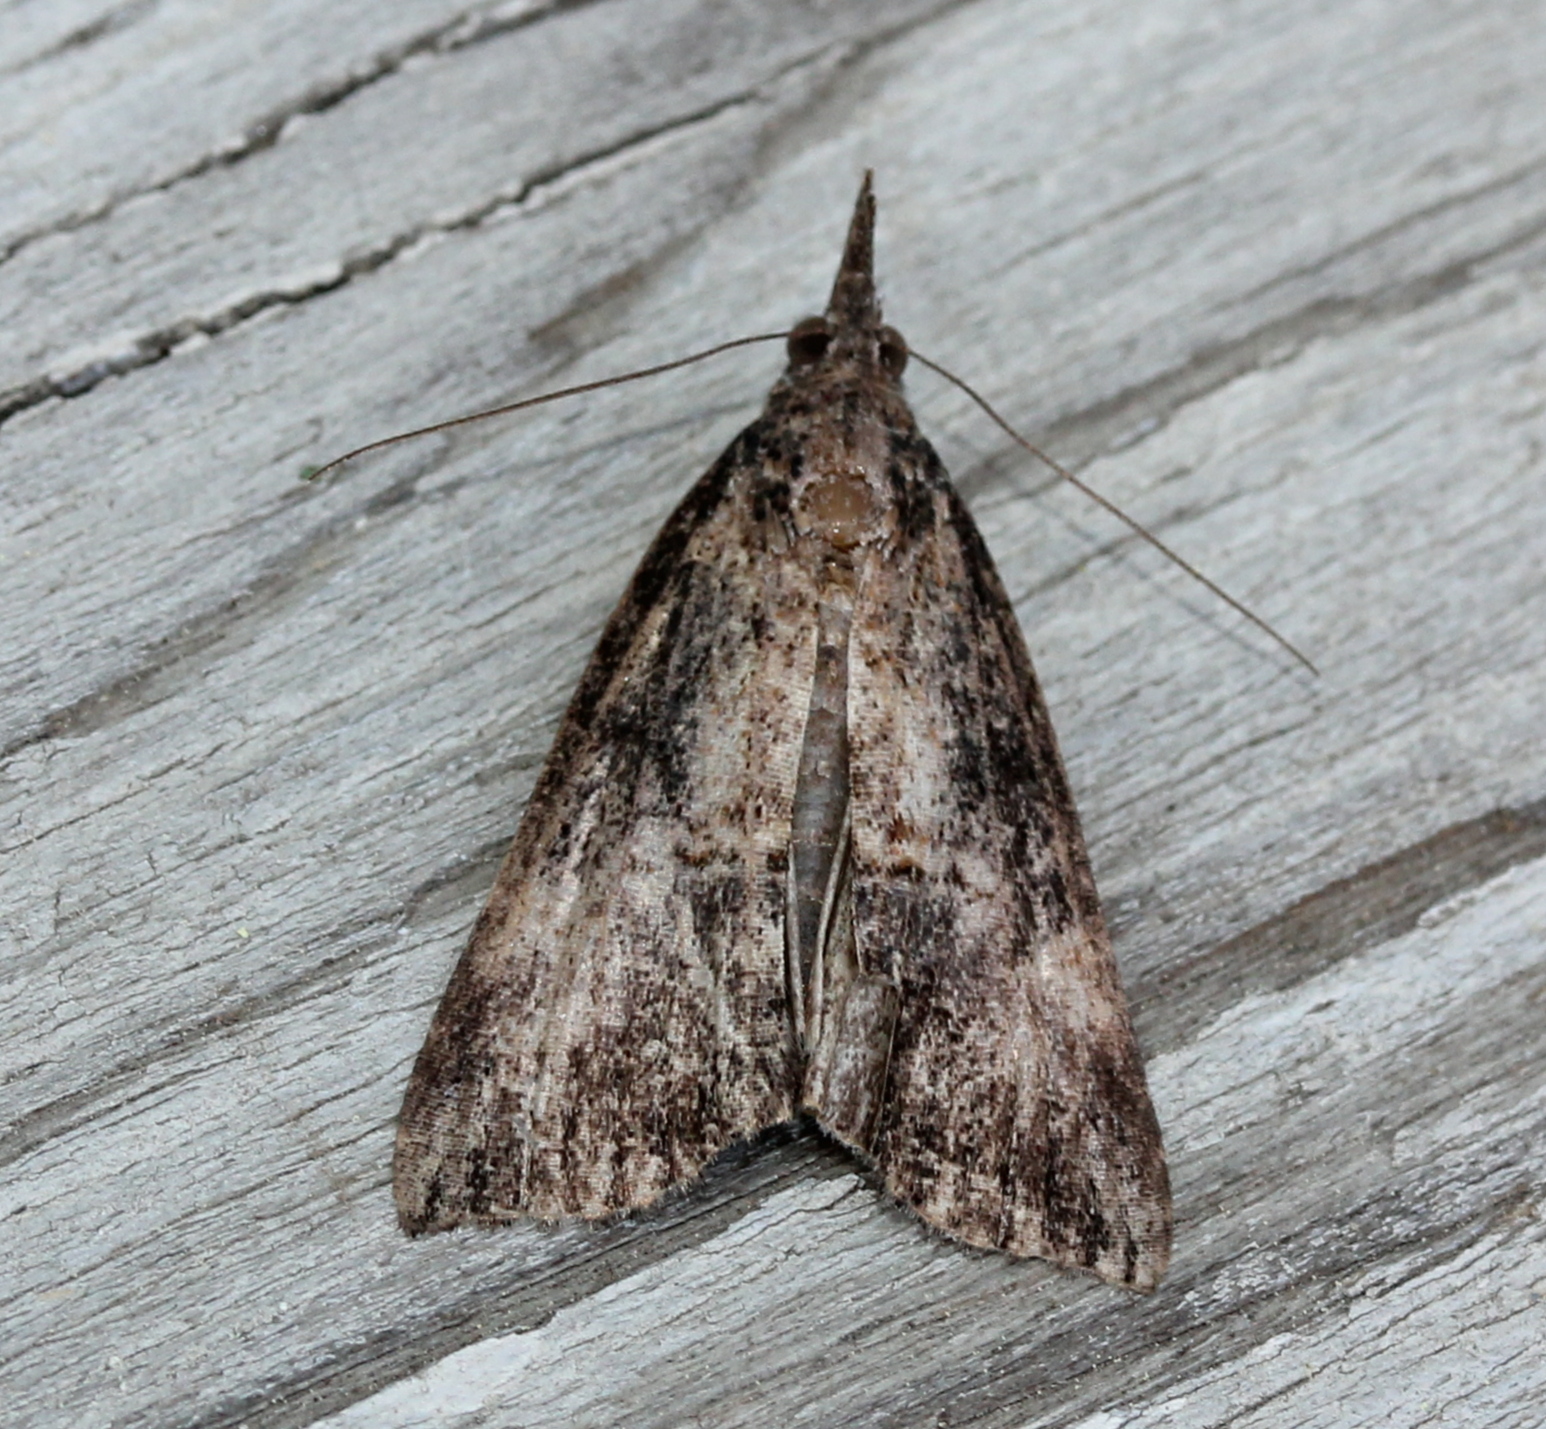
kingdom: Animalia
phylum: Arthropoda
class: Insecta
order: Lepidoptera
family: Erebidae
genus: Hypena
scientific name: Hypena scabra
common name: Green cloverworm
